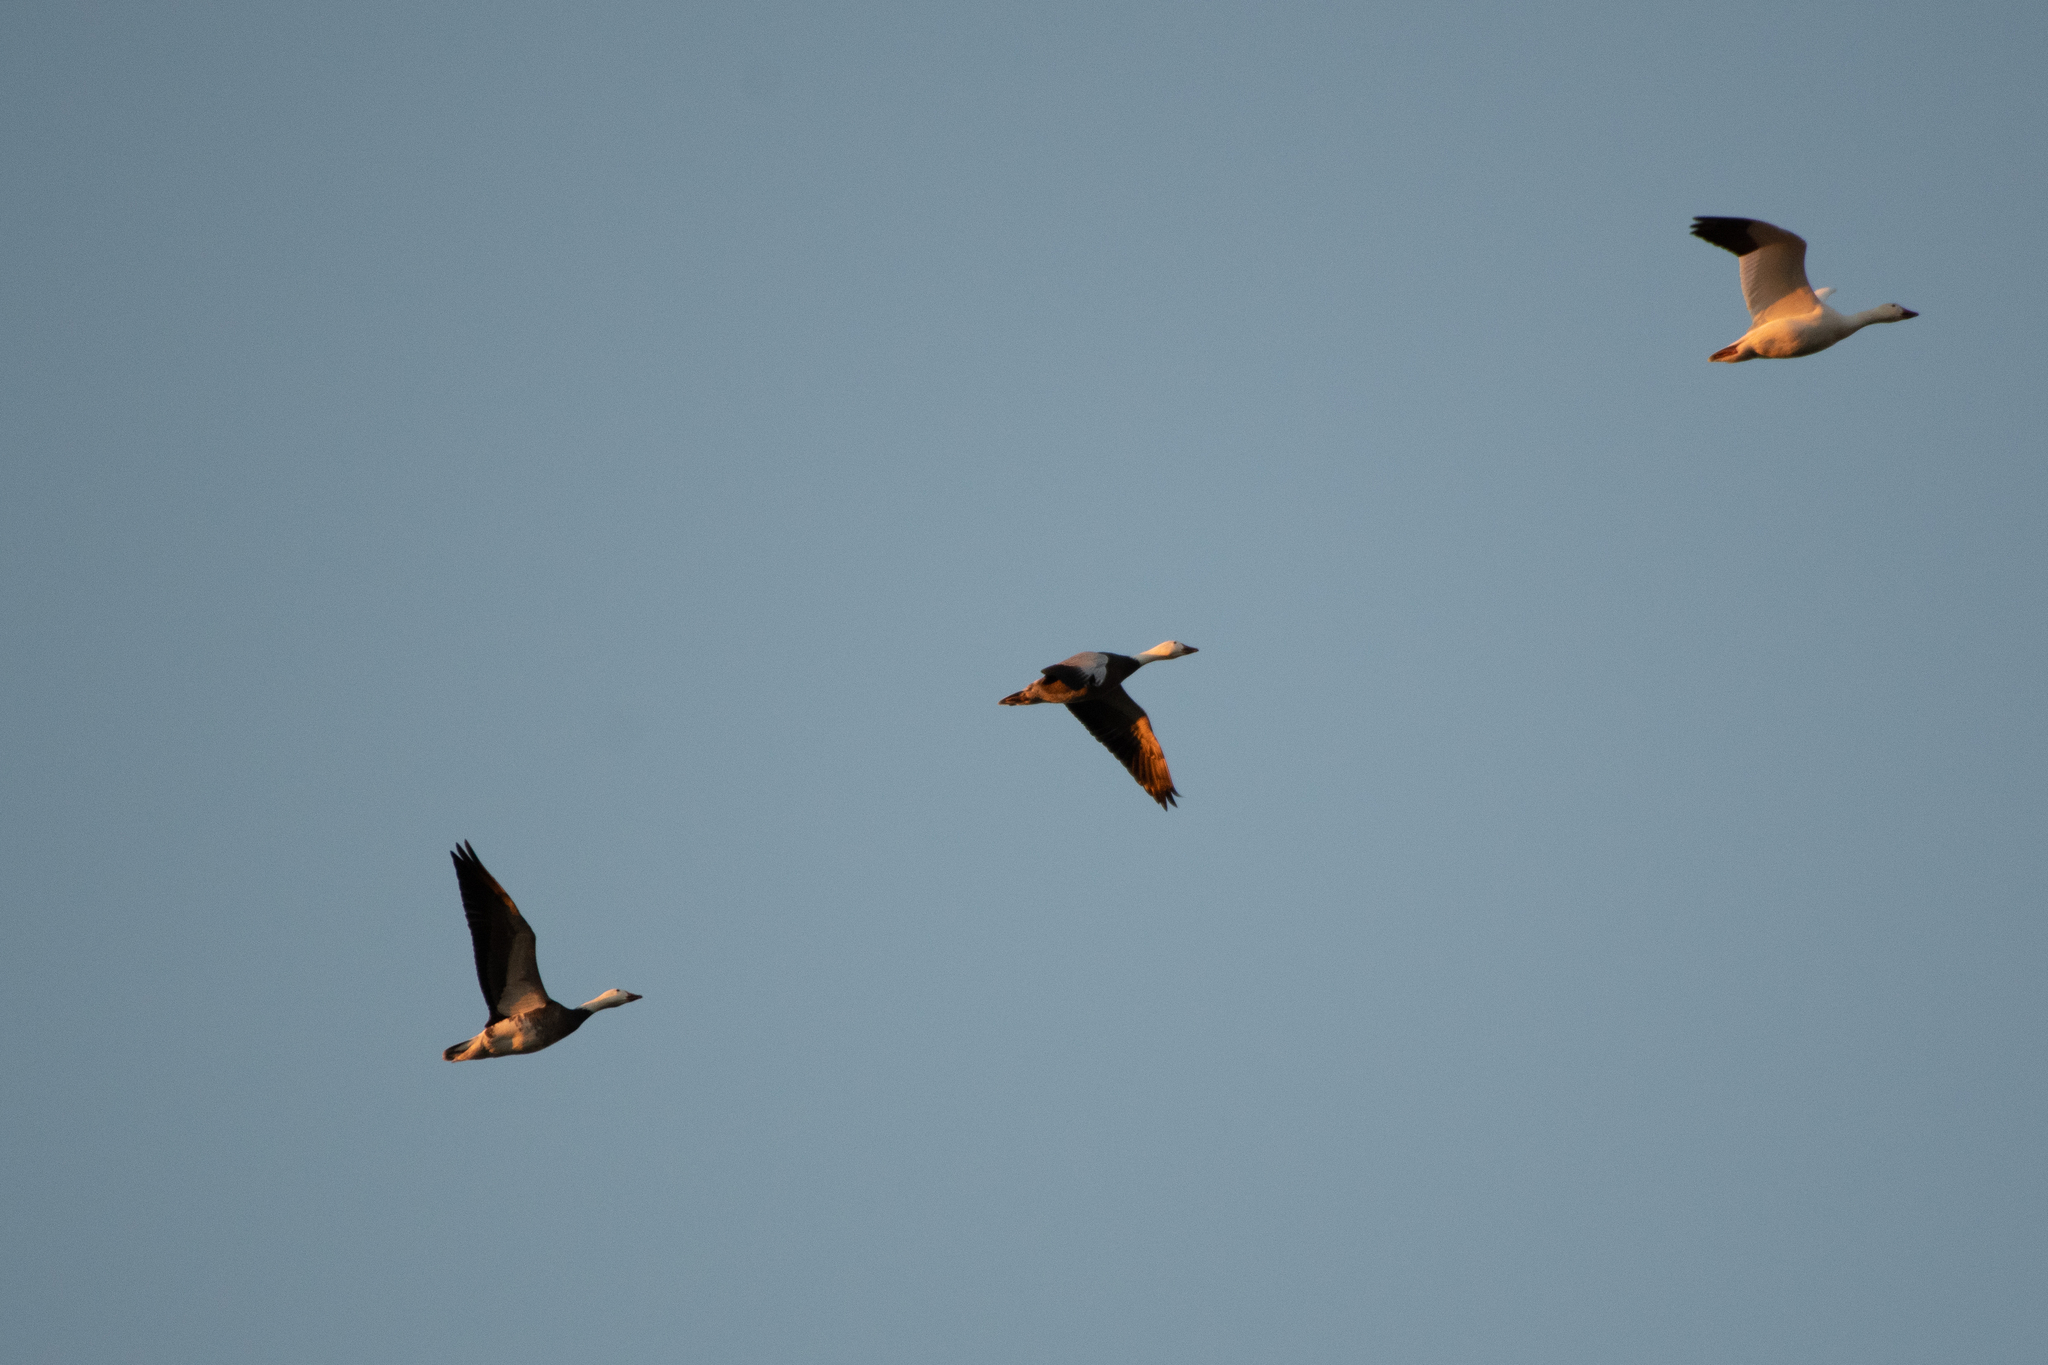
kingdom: Animalia
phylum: Chordata
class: Aves
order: Anseriformes
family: Anatidae
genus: Anser
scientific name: Anser caerulescens
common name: Snow goose
